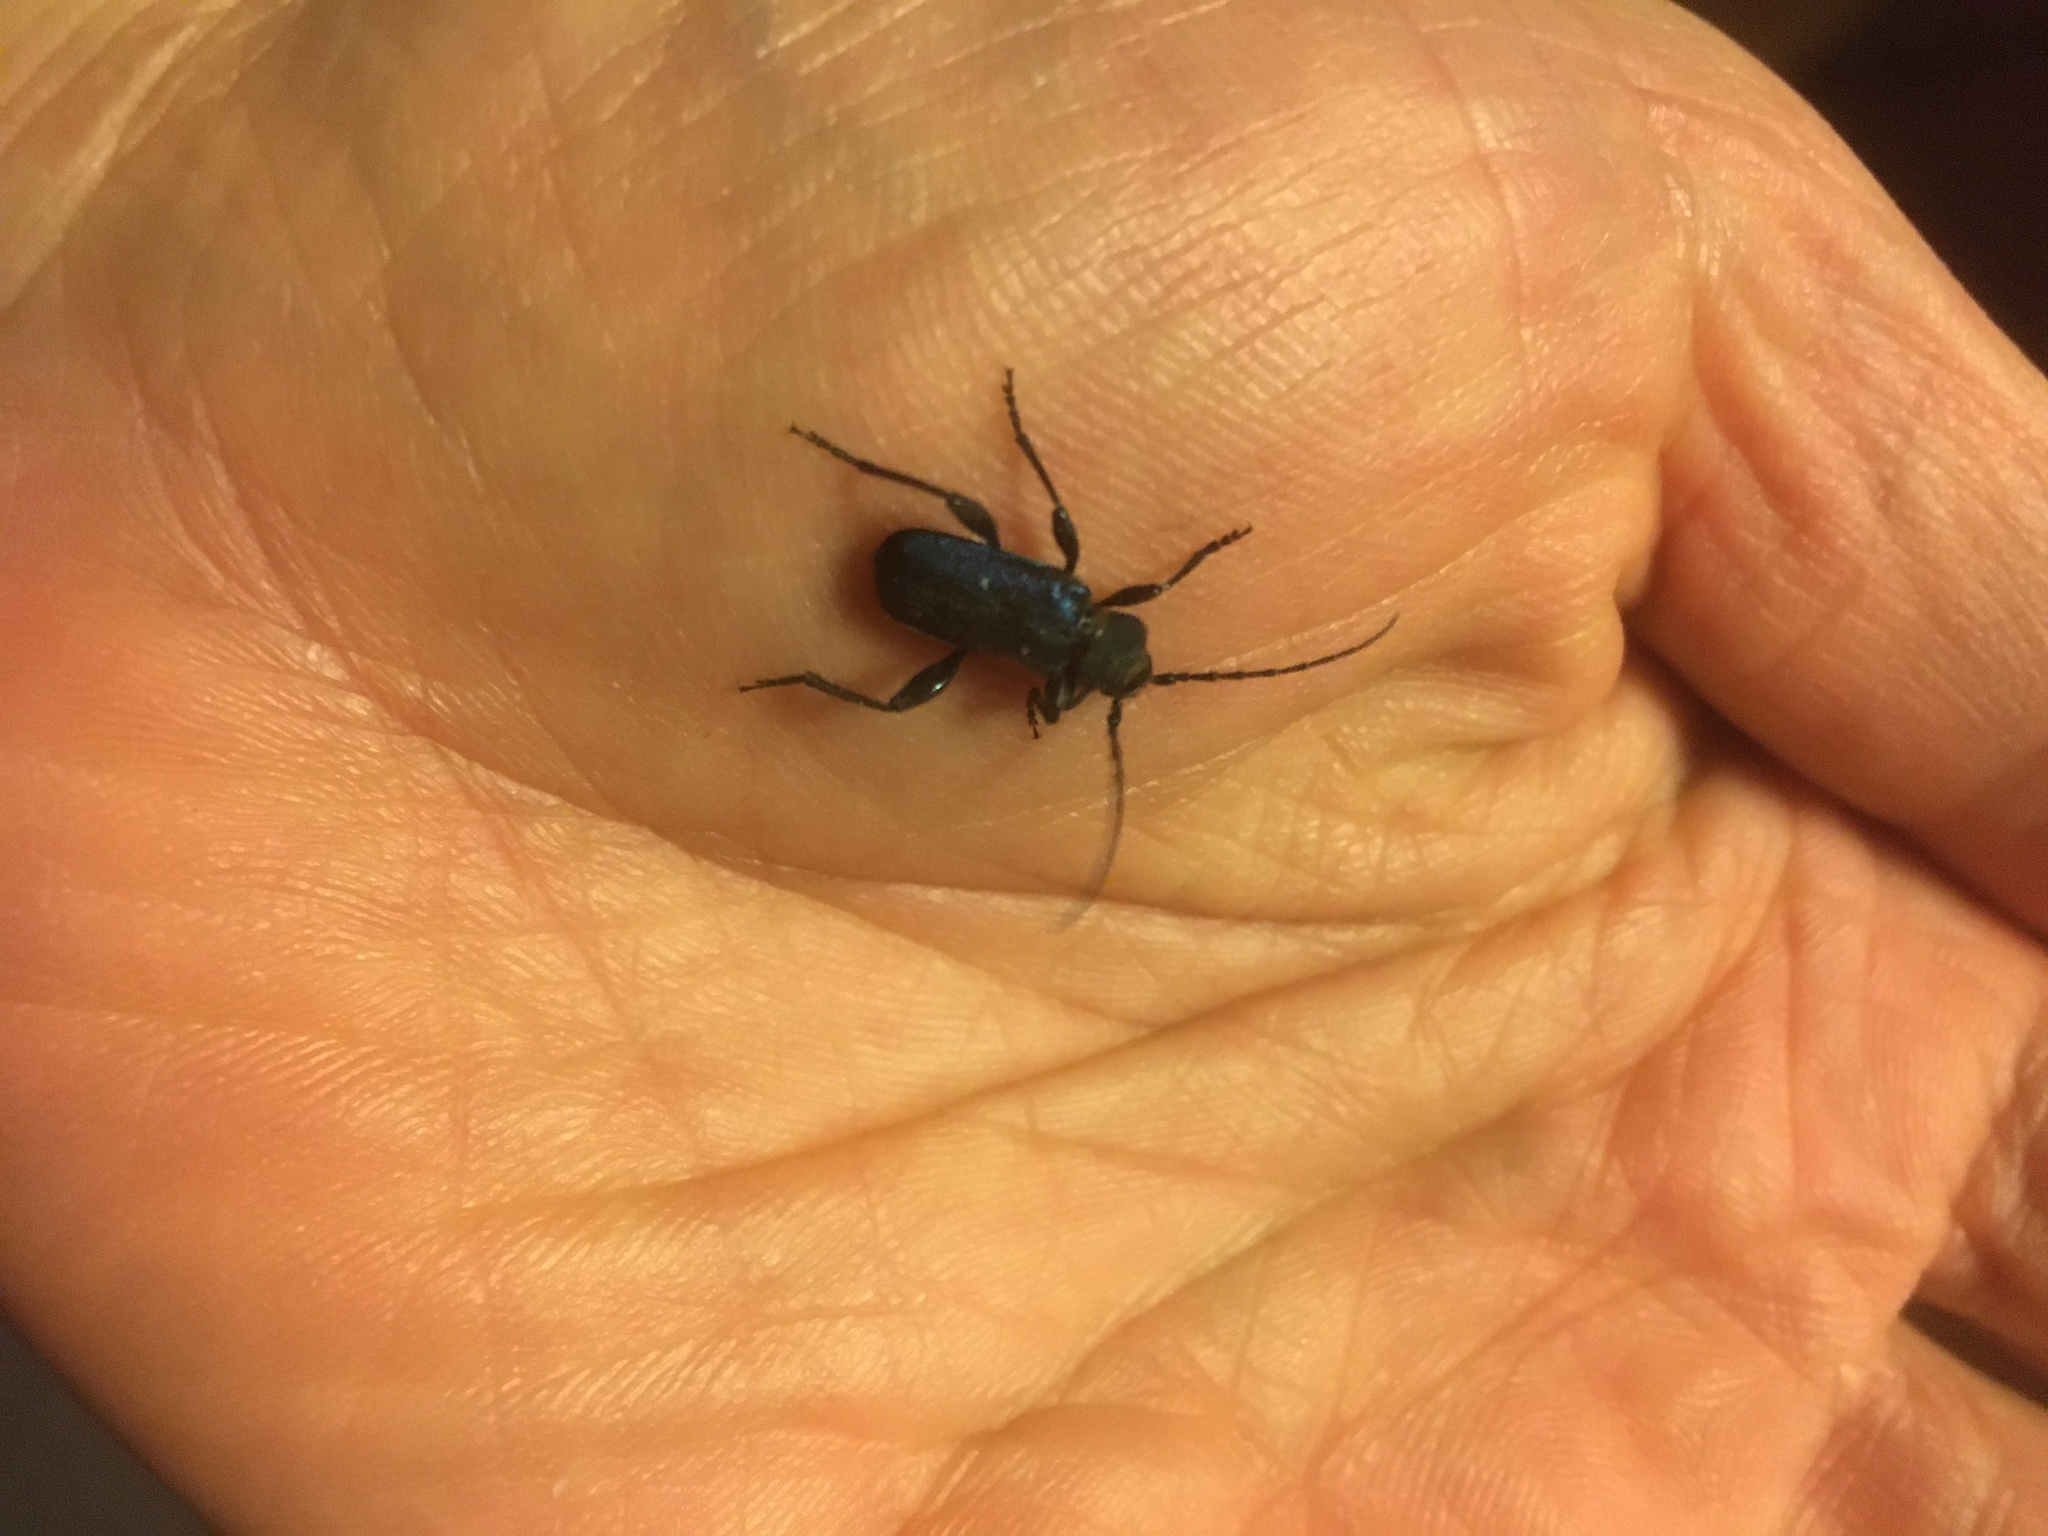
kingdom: Animalia
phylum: Arthropoda
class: Insecta
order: Coleoptera
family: Cerambycidae
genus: Callidium
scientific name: Callidium violaceum
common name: Violet tanbark beetle
